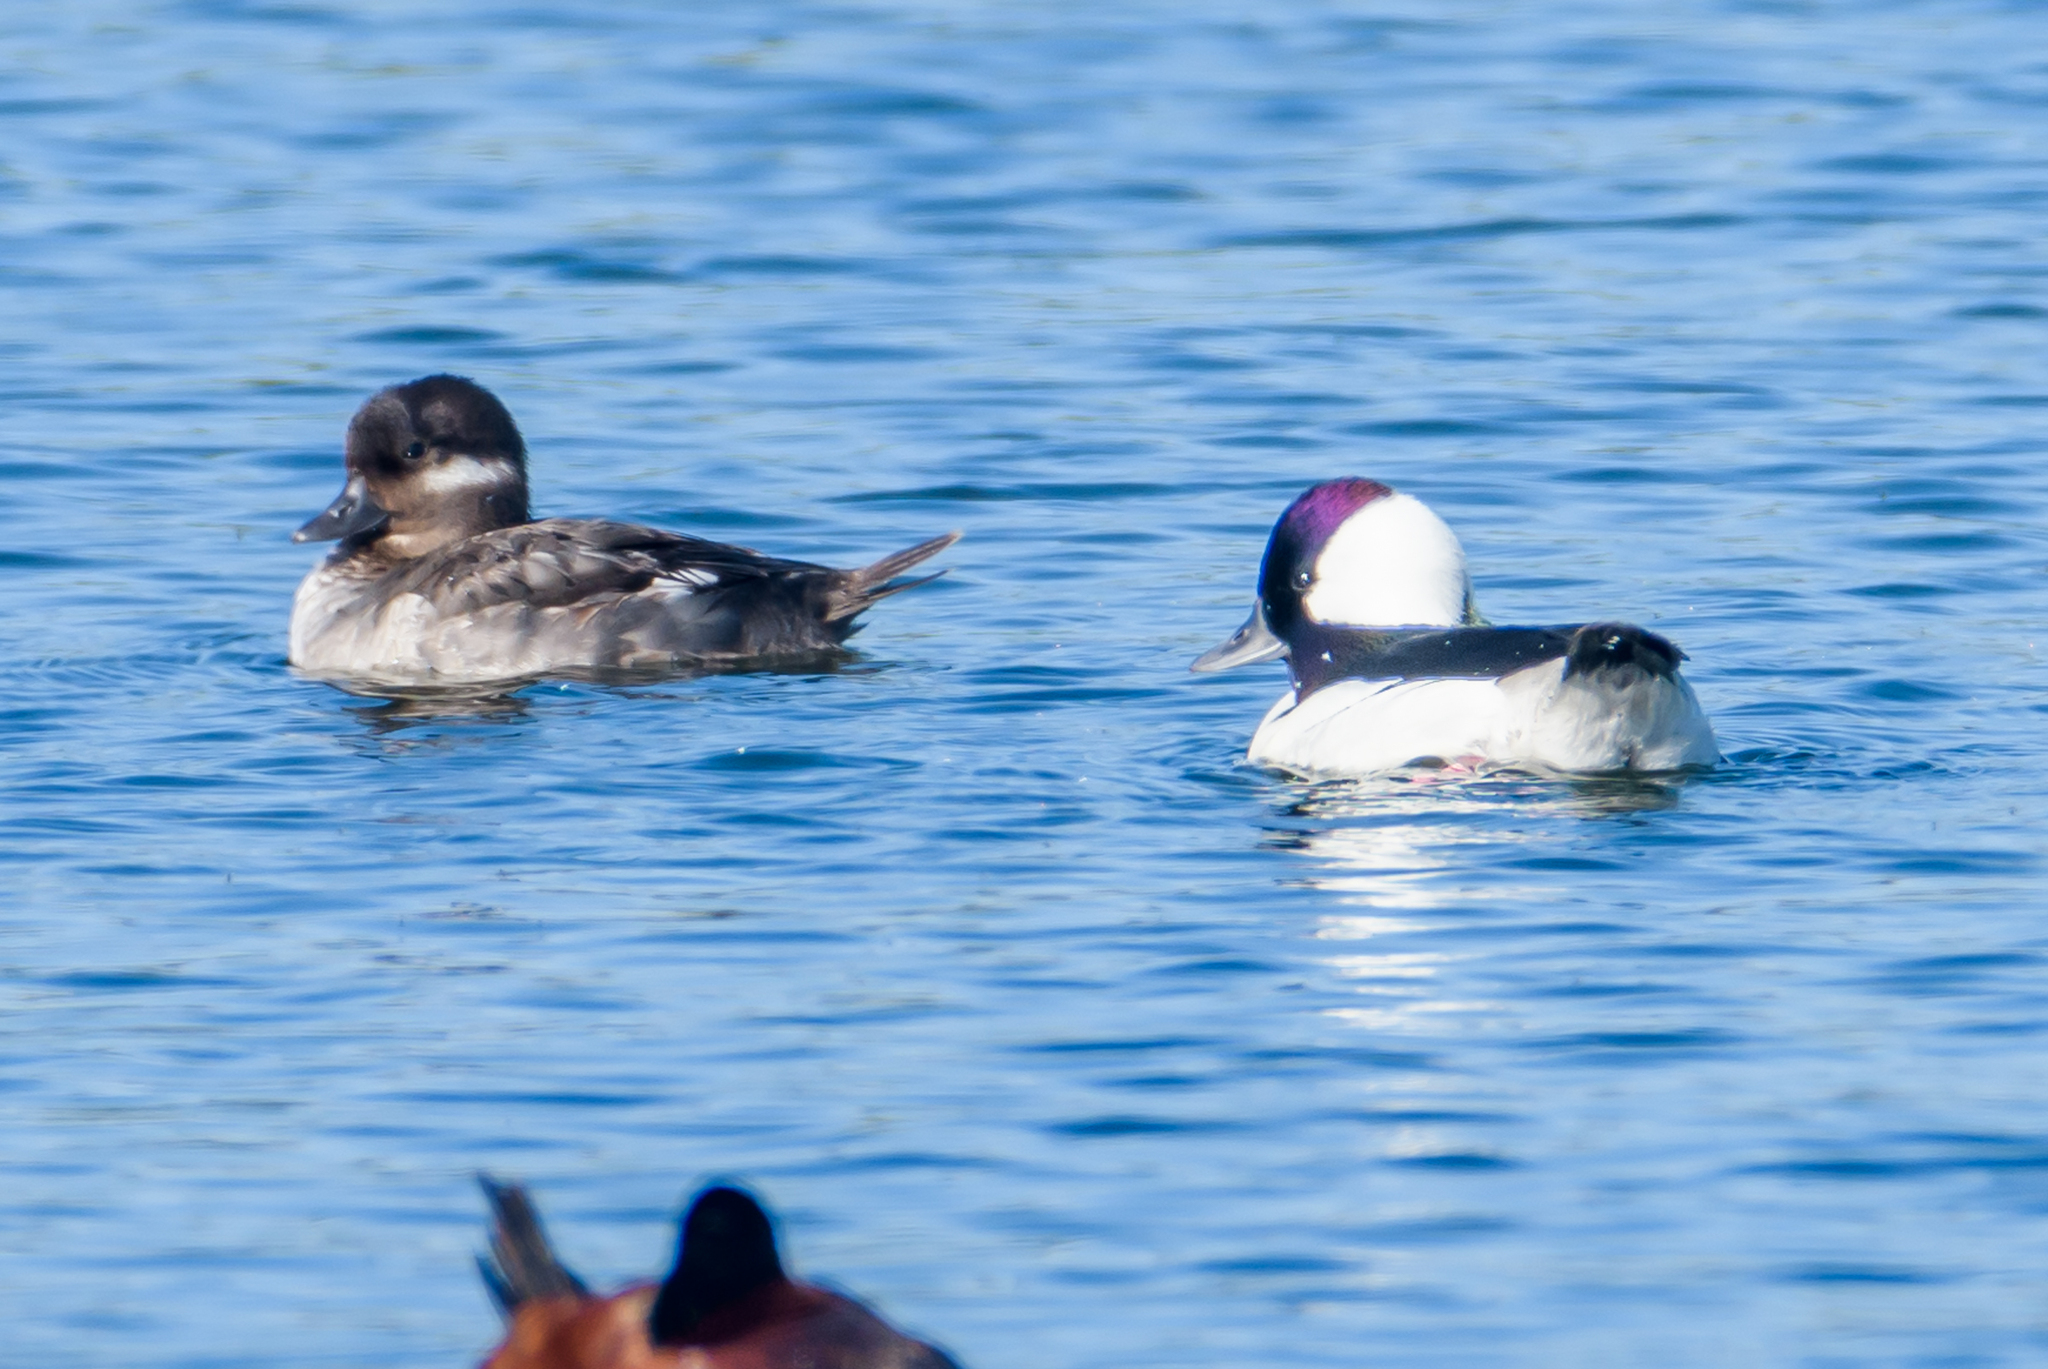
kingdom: Animalia
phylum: Chordata
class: Aves
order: Anseriformes
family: Anatidae
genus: Bucephala
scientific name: Bucephala albeola
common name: Bufflehead
